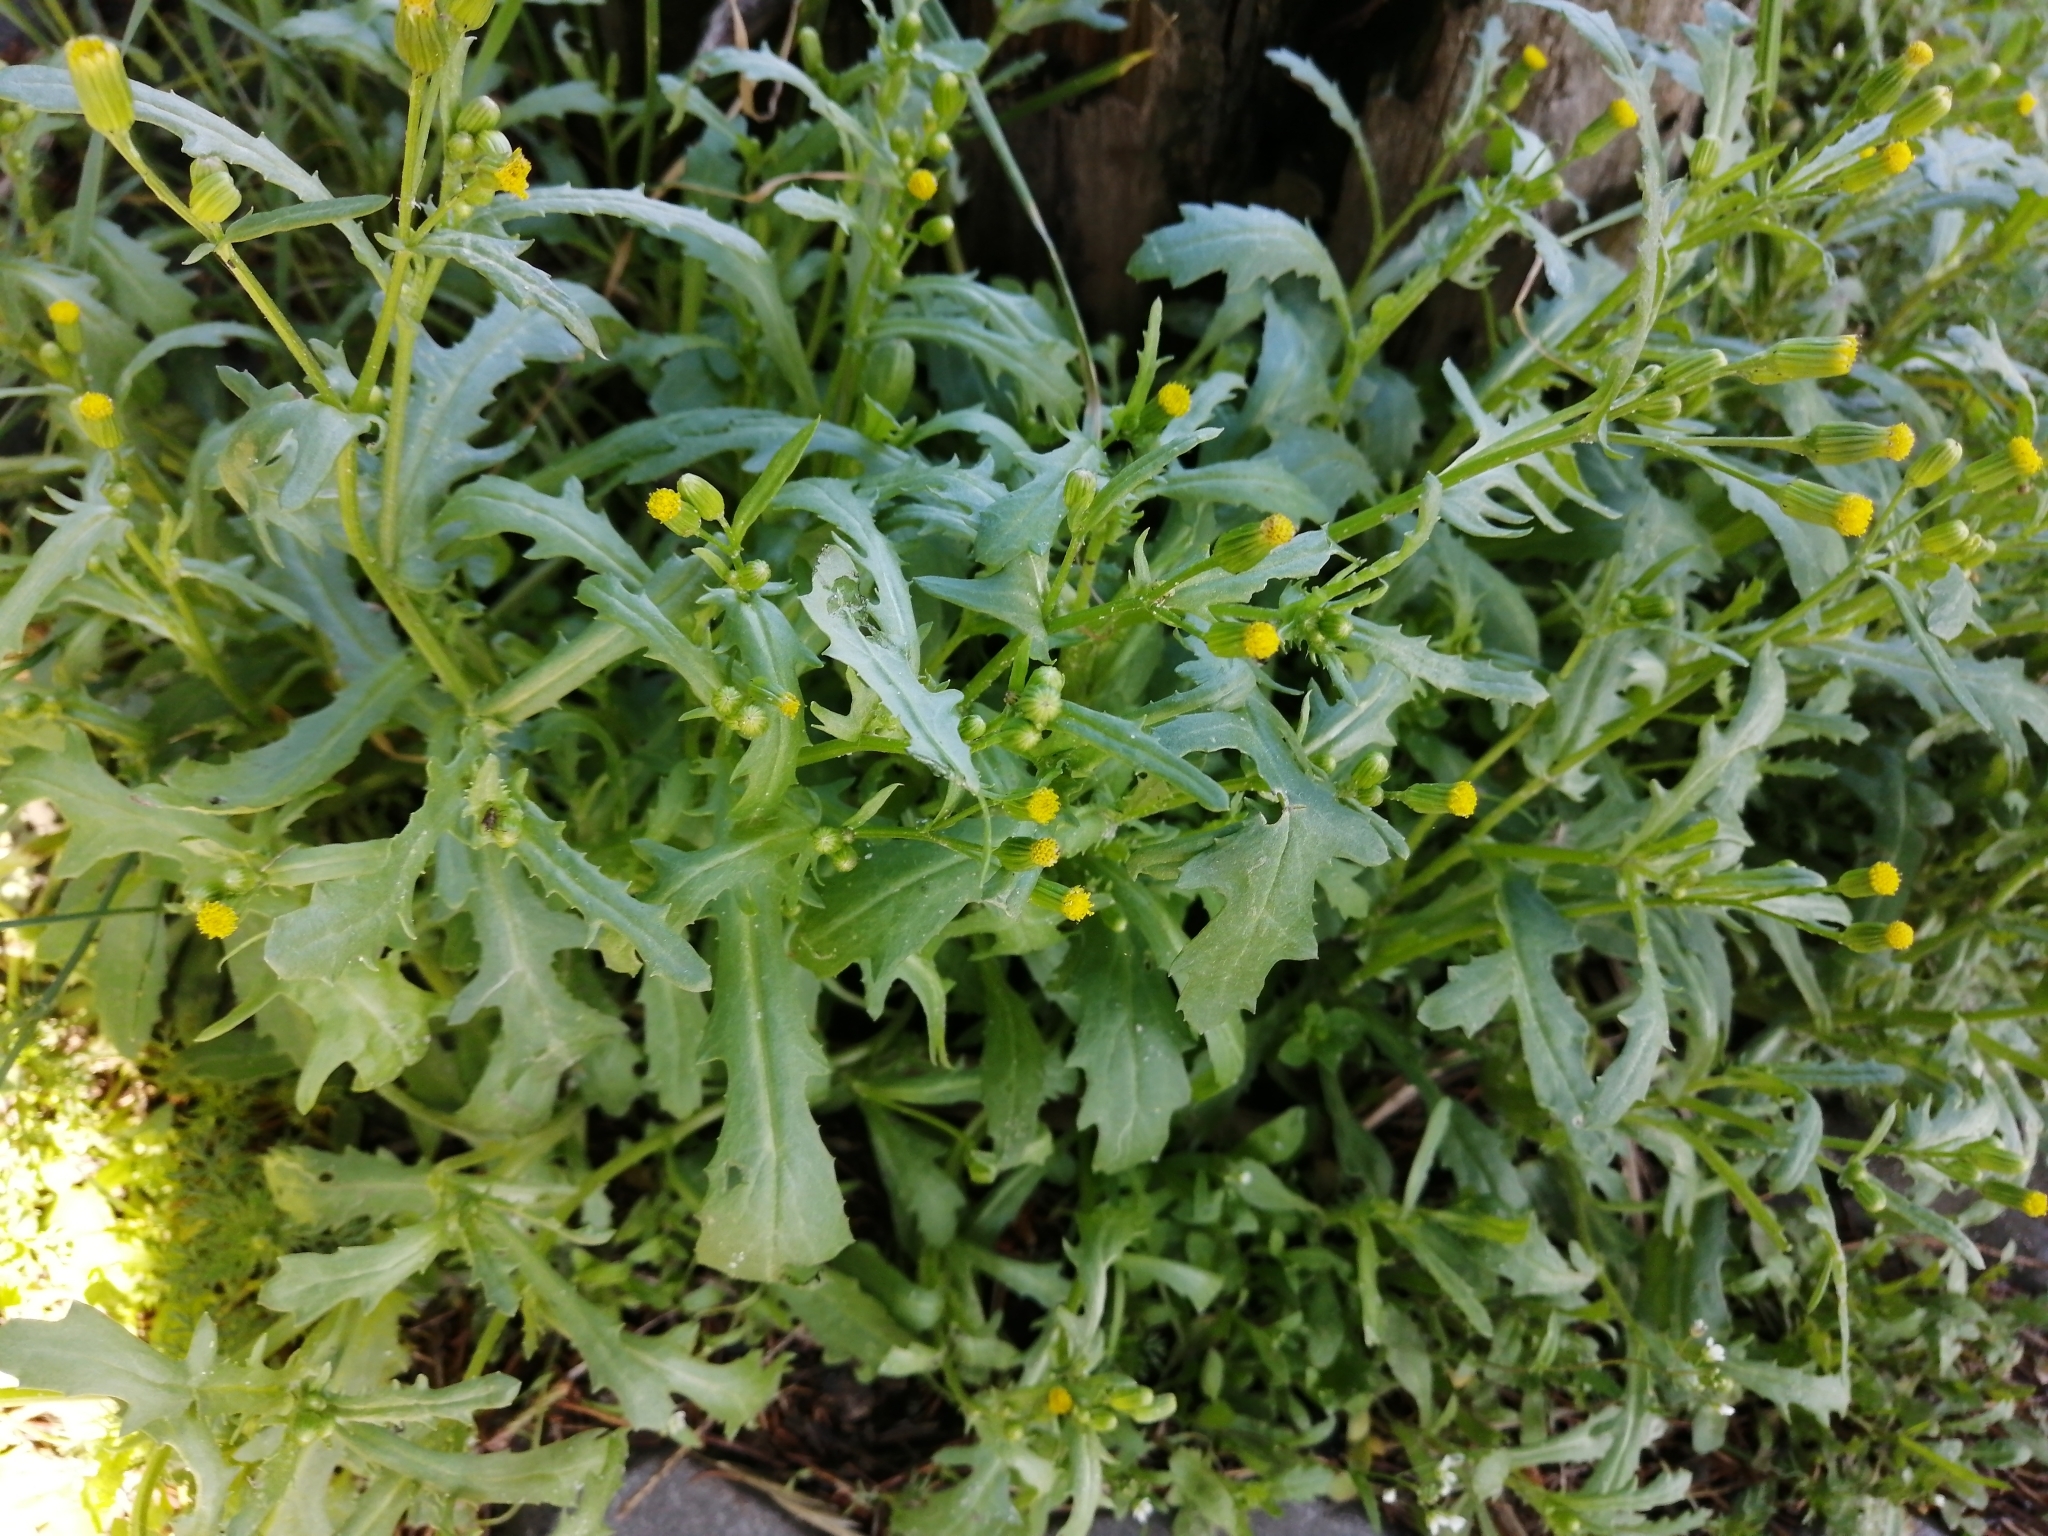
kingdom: Plantae
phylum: Tracheophyta
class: Magnoliopsida
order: Asterales
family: Asteraceae
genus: Senecio
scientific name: Senecio vulgaris
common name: Old-man-in-the-spring
